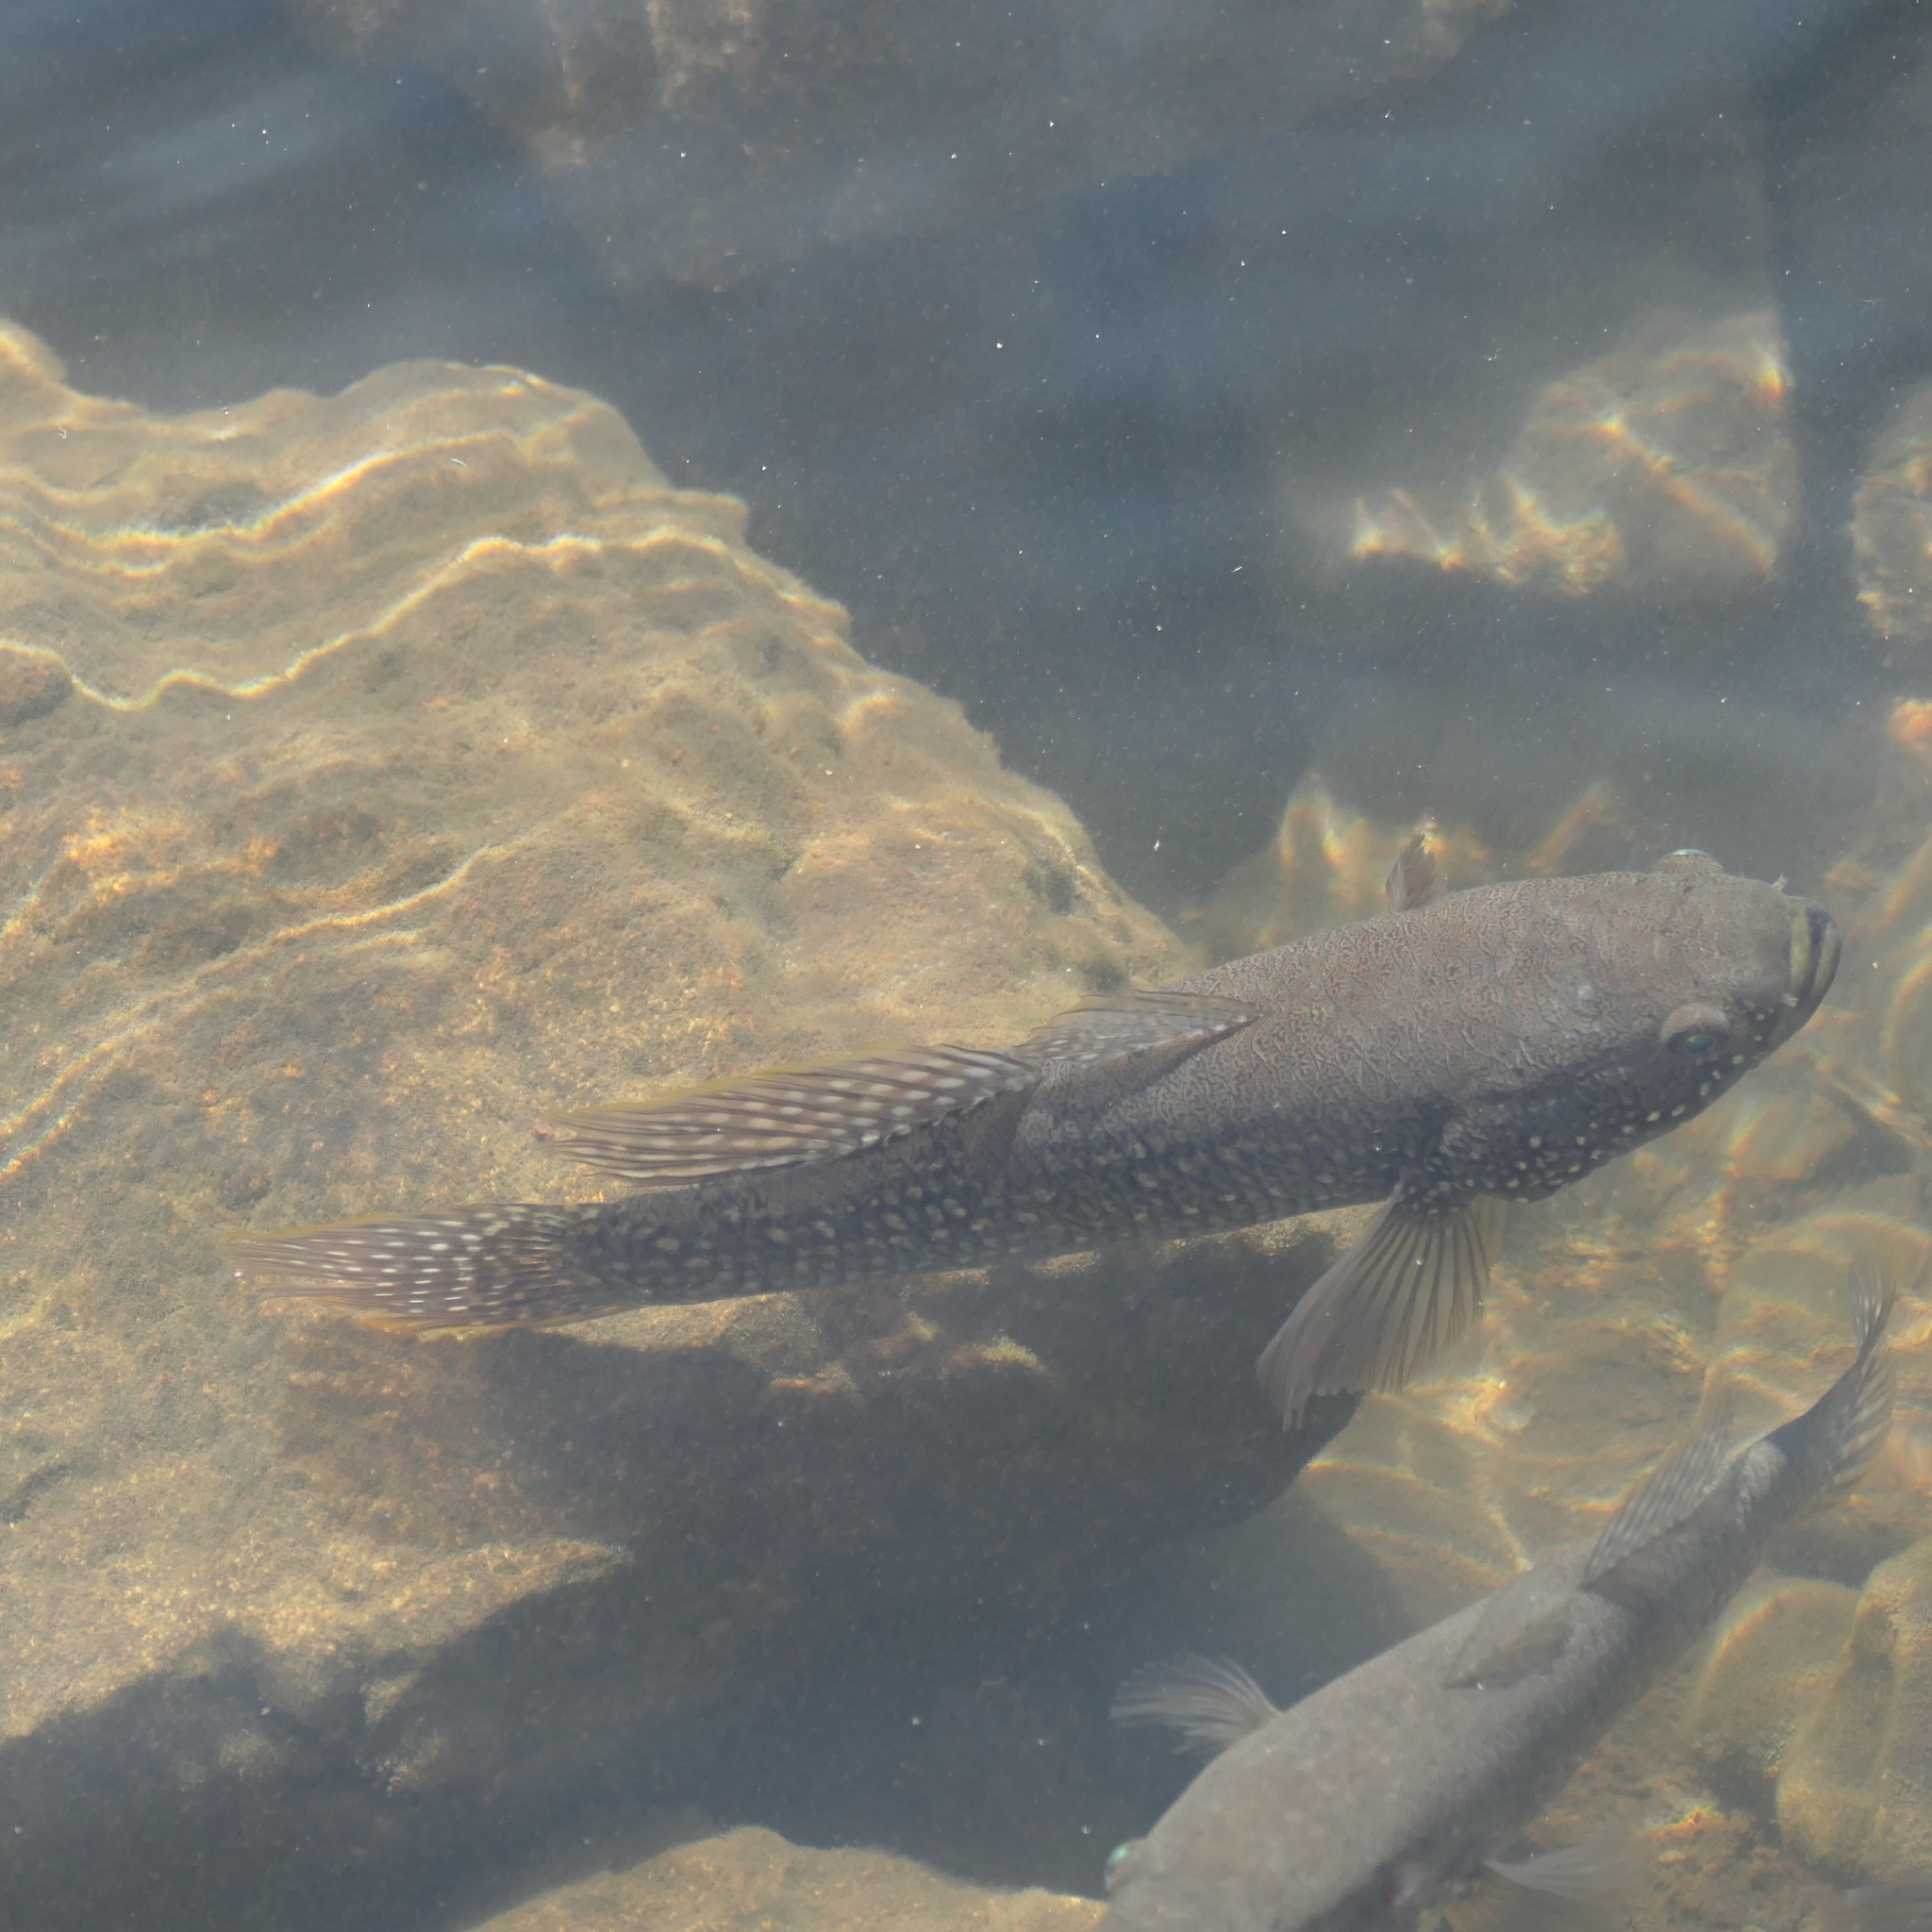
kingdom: Animalia
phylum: Chordata
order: Perciformes
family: Eleotridae
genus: Ophiocara
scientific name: Ophiocara porocephala
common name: Spangled gudgeon
